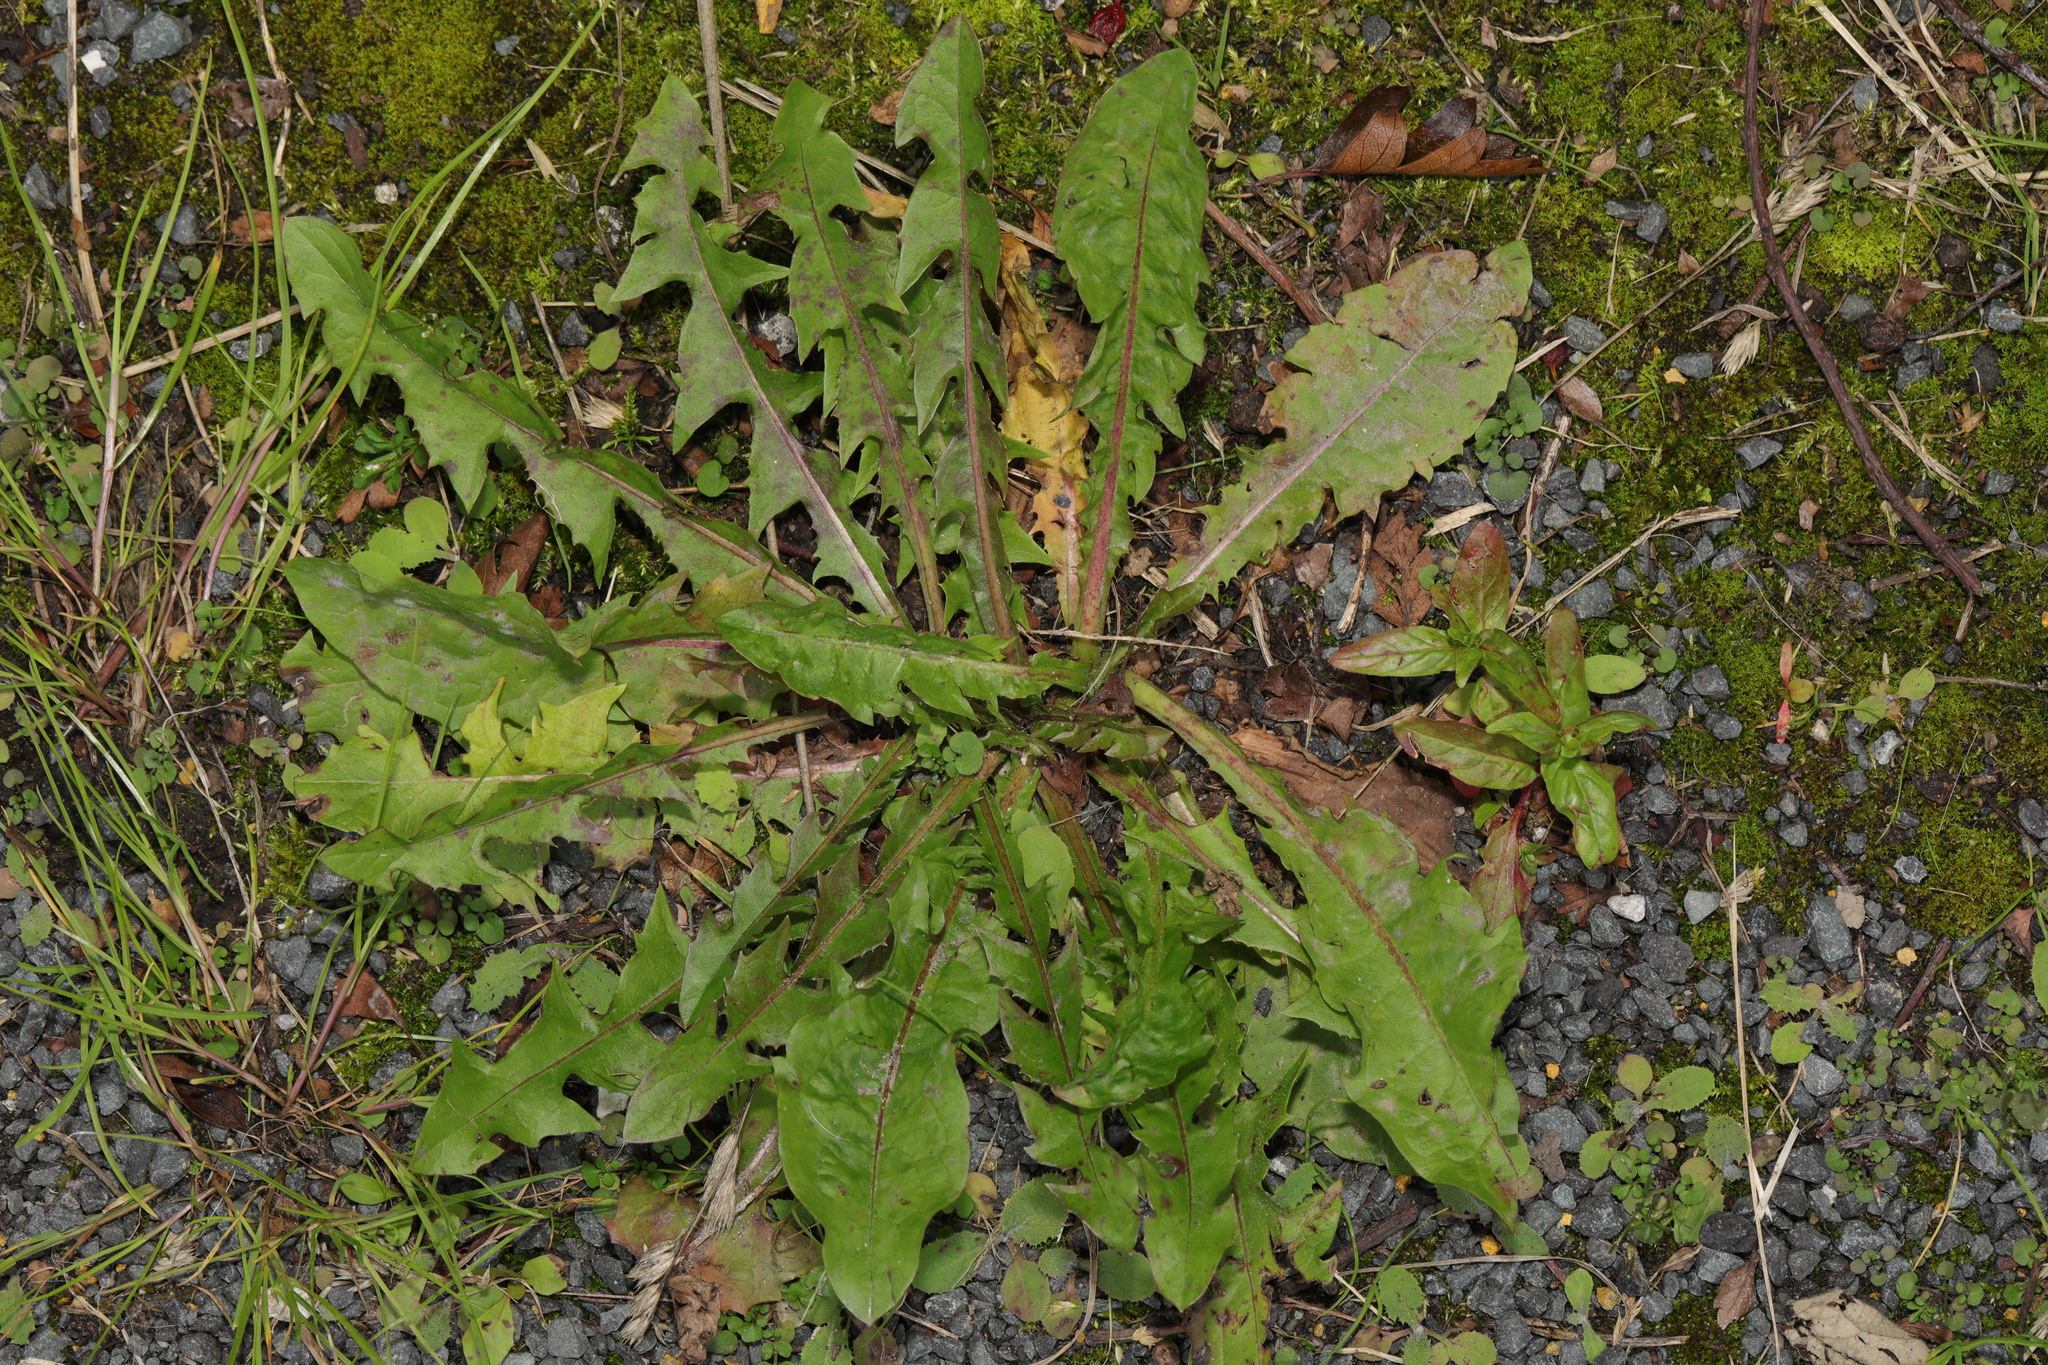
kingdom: Plantae
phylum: Tracheophyta
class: Magnoliopsida
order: Asterales
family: Asteraceae
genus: Taraxacum
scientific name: Taraxacum officinale
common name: Common dandelion
